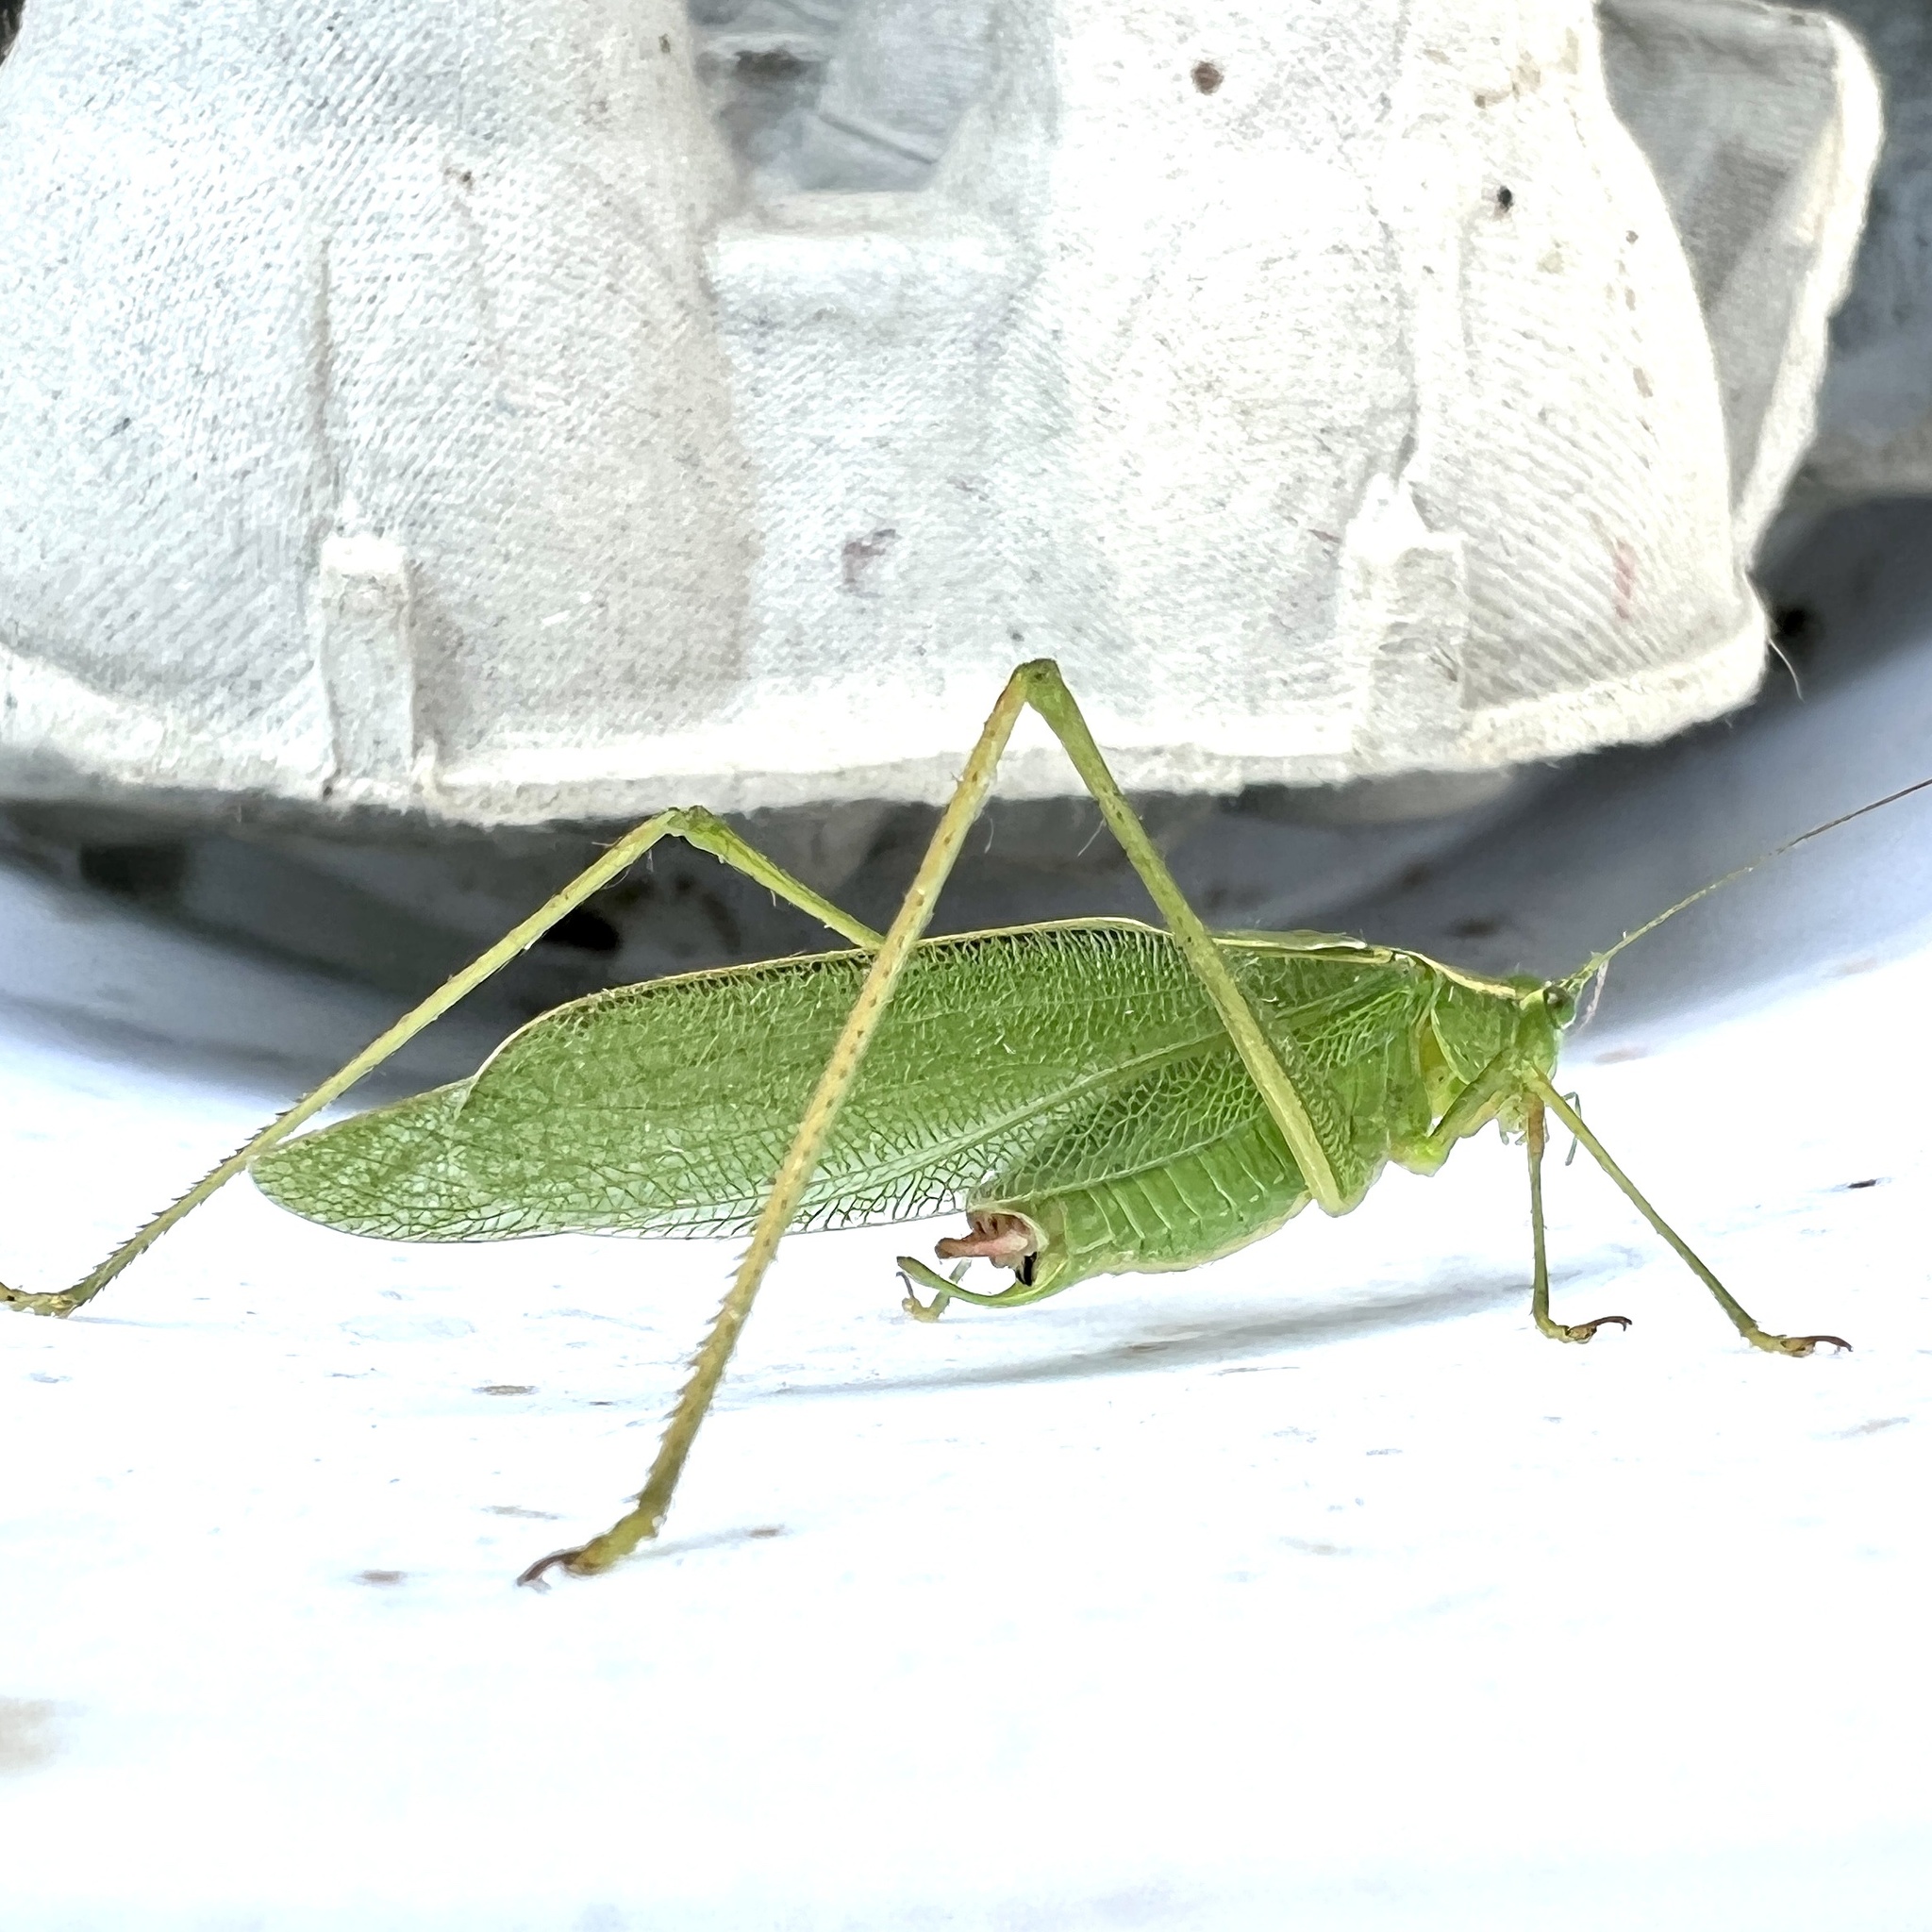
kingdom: Animalia
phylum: Arthropoda
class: Insecta
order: Orthoptera
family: Tettigoniidae
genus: Scudderia
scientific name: Scudderia septentrionalis
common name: Northern bush-katydid
